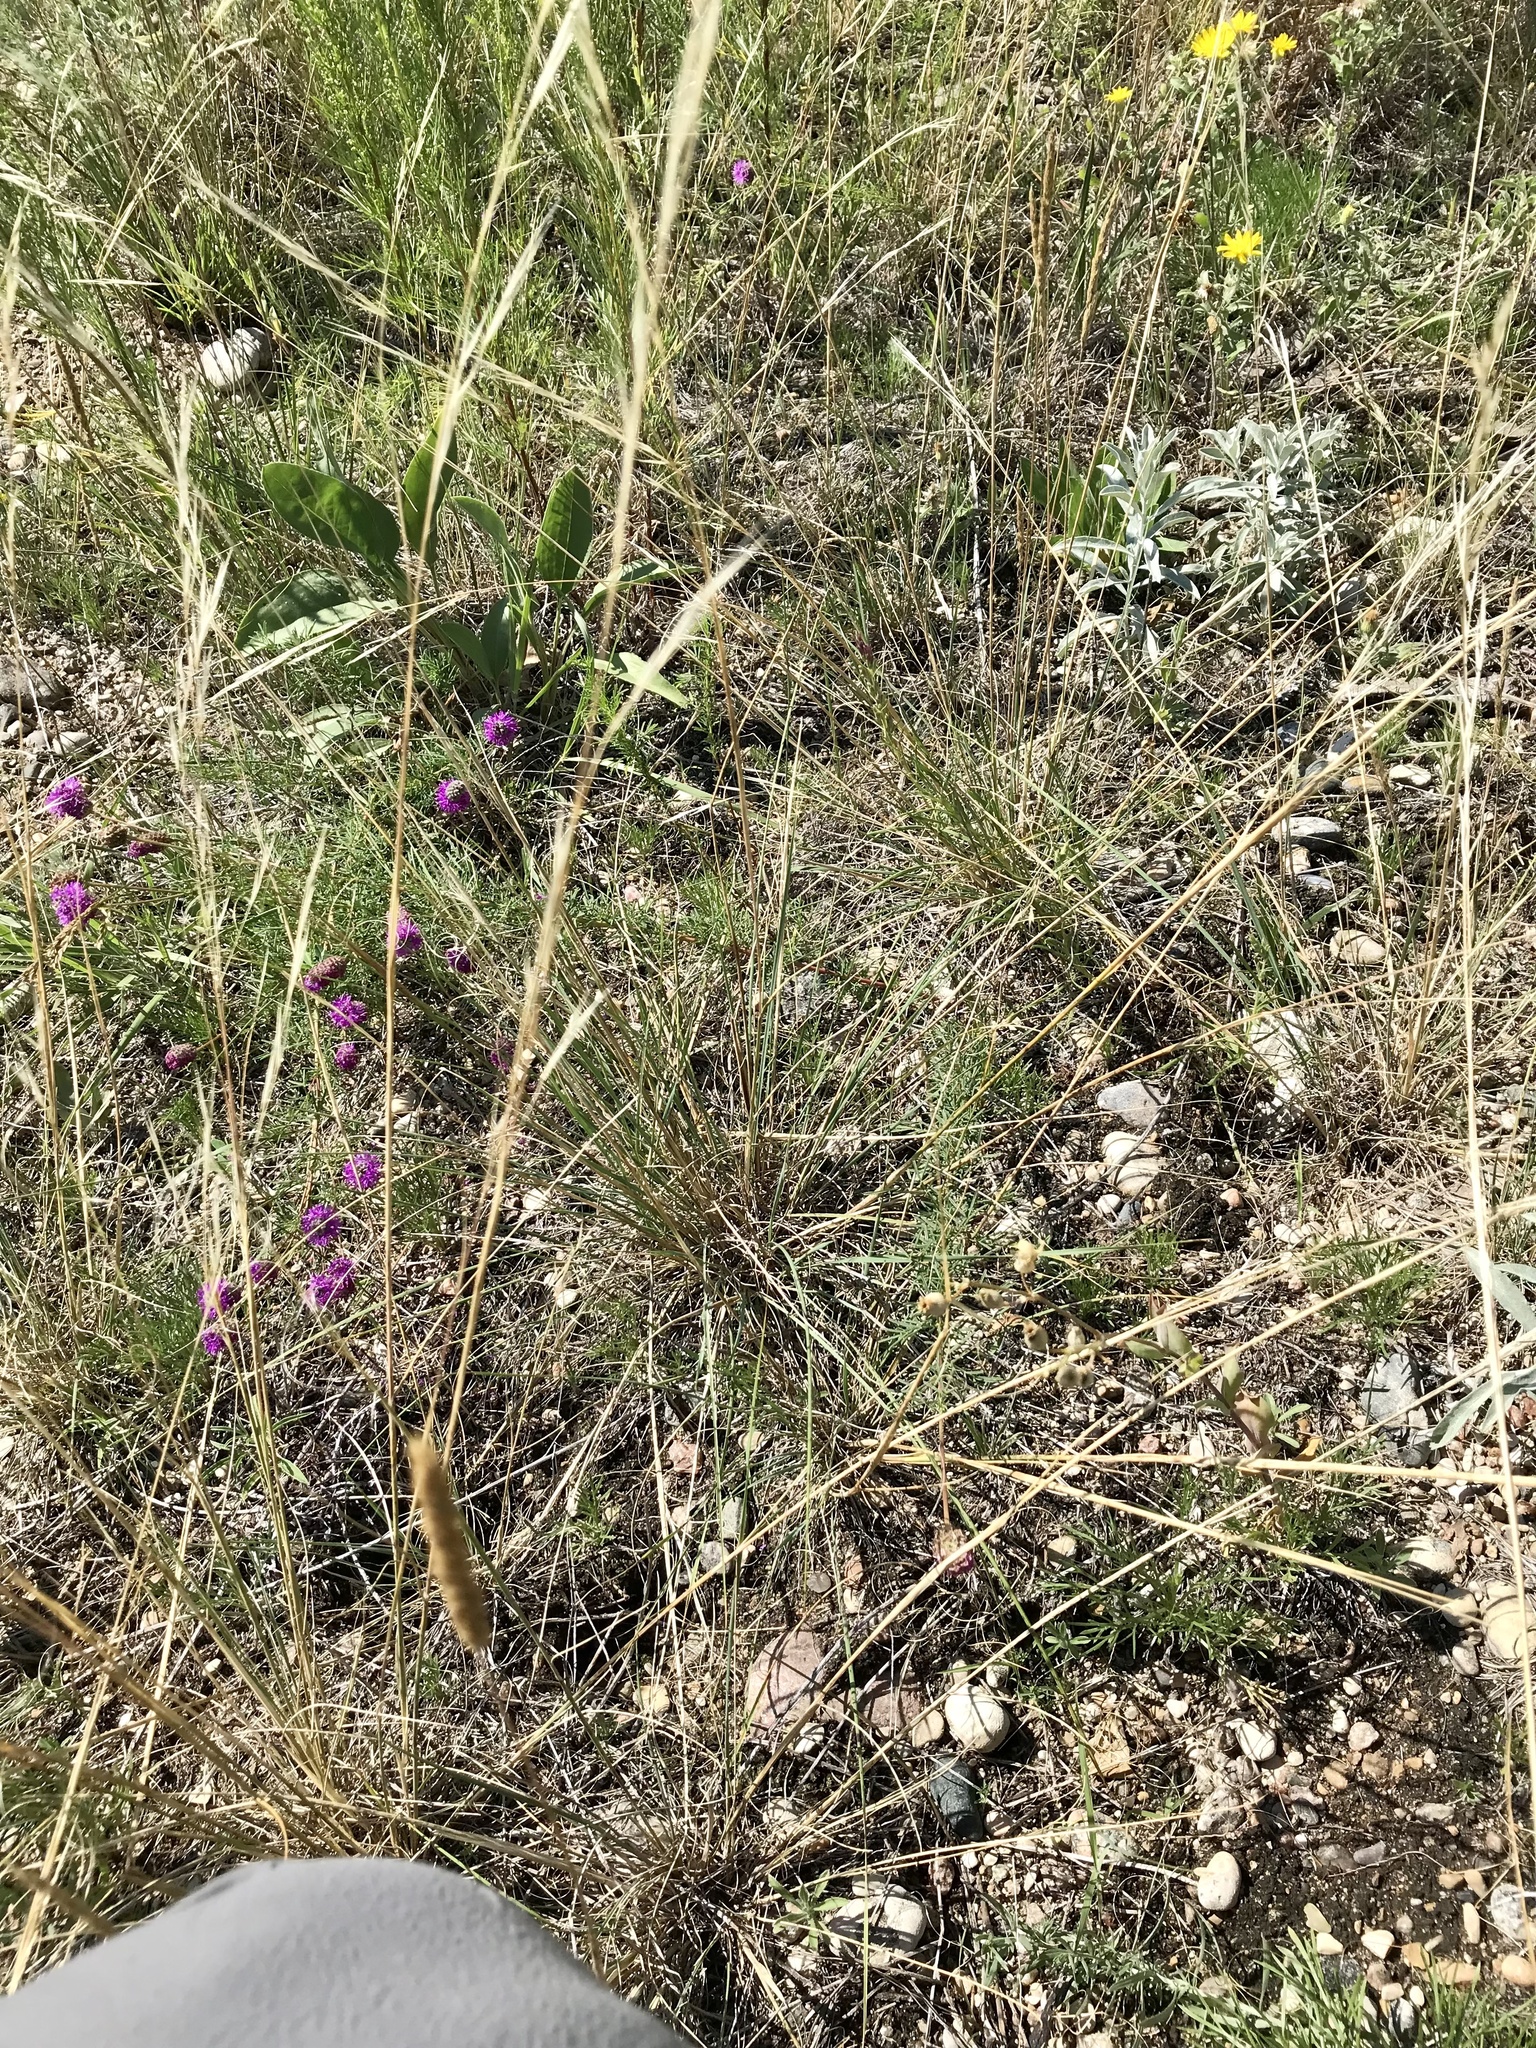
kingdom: Plantae
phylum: Tracheophyta
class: Liliopsida
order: Poales
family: Poaceae
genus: Hesperostipa
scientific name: Hesperostipa comata
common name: Needle-and-thread grass
